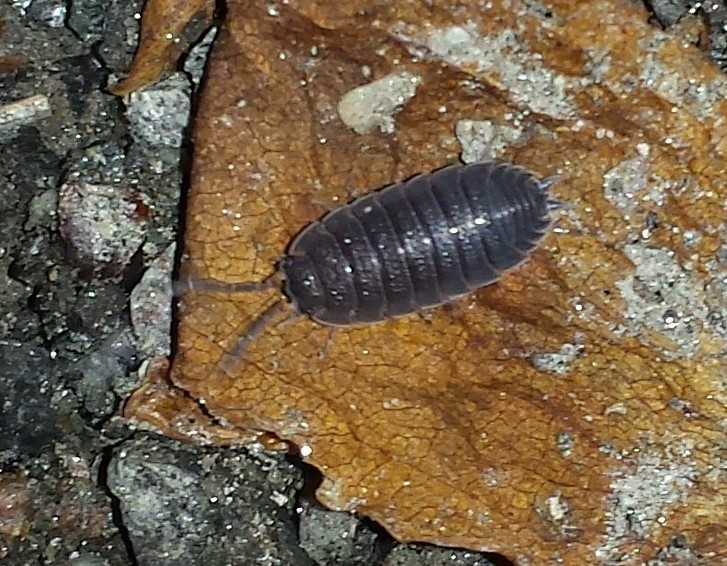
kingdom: Animalia
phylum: Arthropoda
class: Malacostraca
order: Isopoda
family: Porcellionidae
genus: Porcellio
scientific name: Porcellio scaber
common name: Common rough woodlouse
